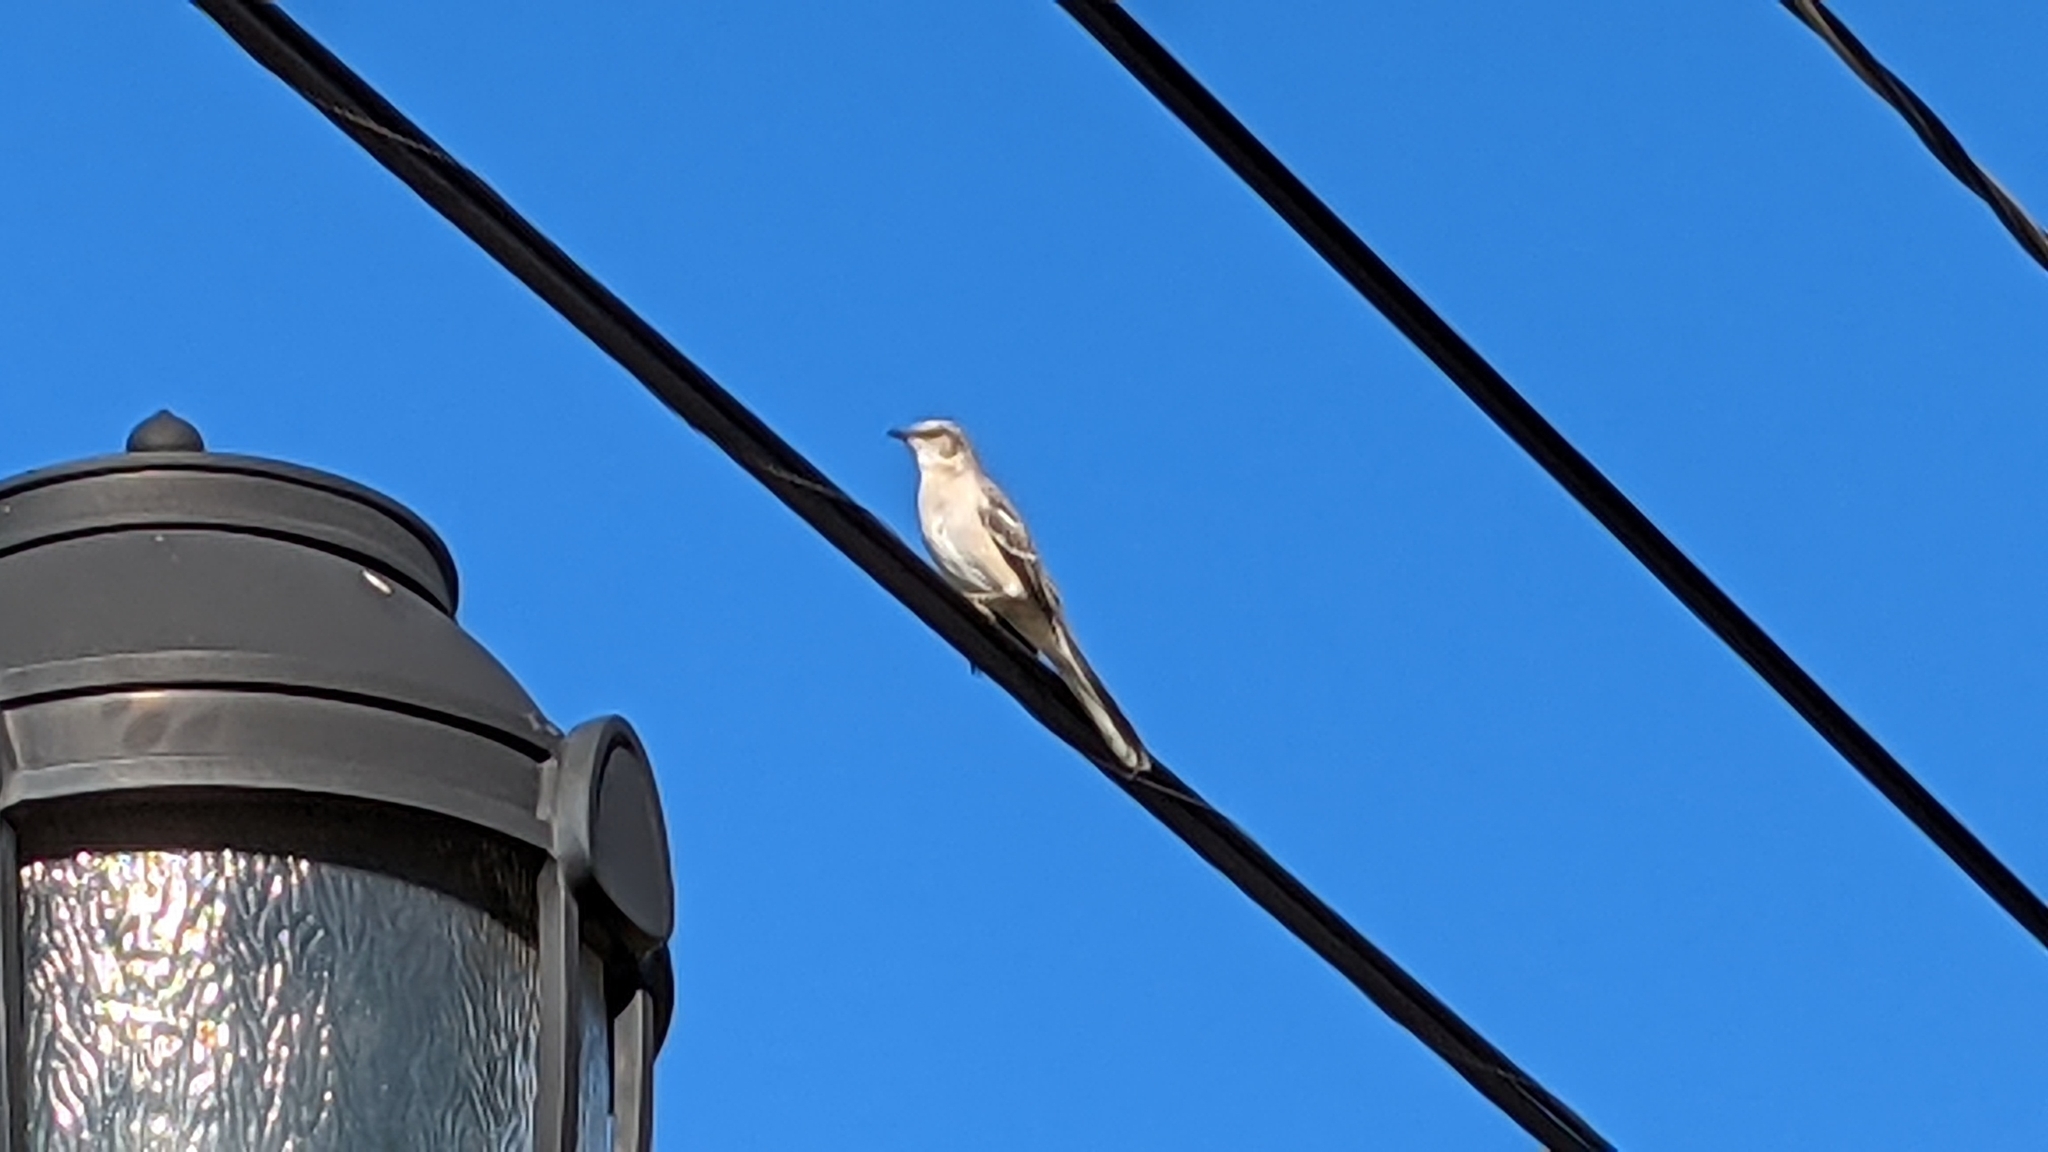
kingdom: Animalia
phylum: Chordata
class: Aves
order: Passeriformes
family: Mimidae
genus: Mimus
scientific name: Mimus polyglottos
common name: Northern mockingbird
